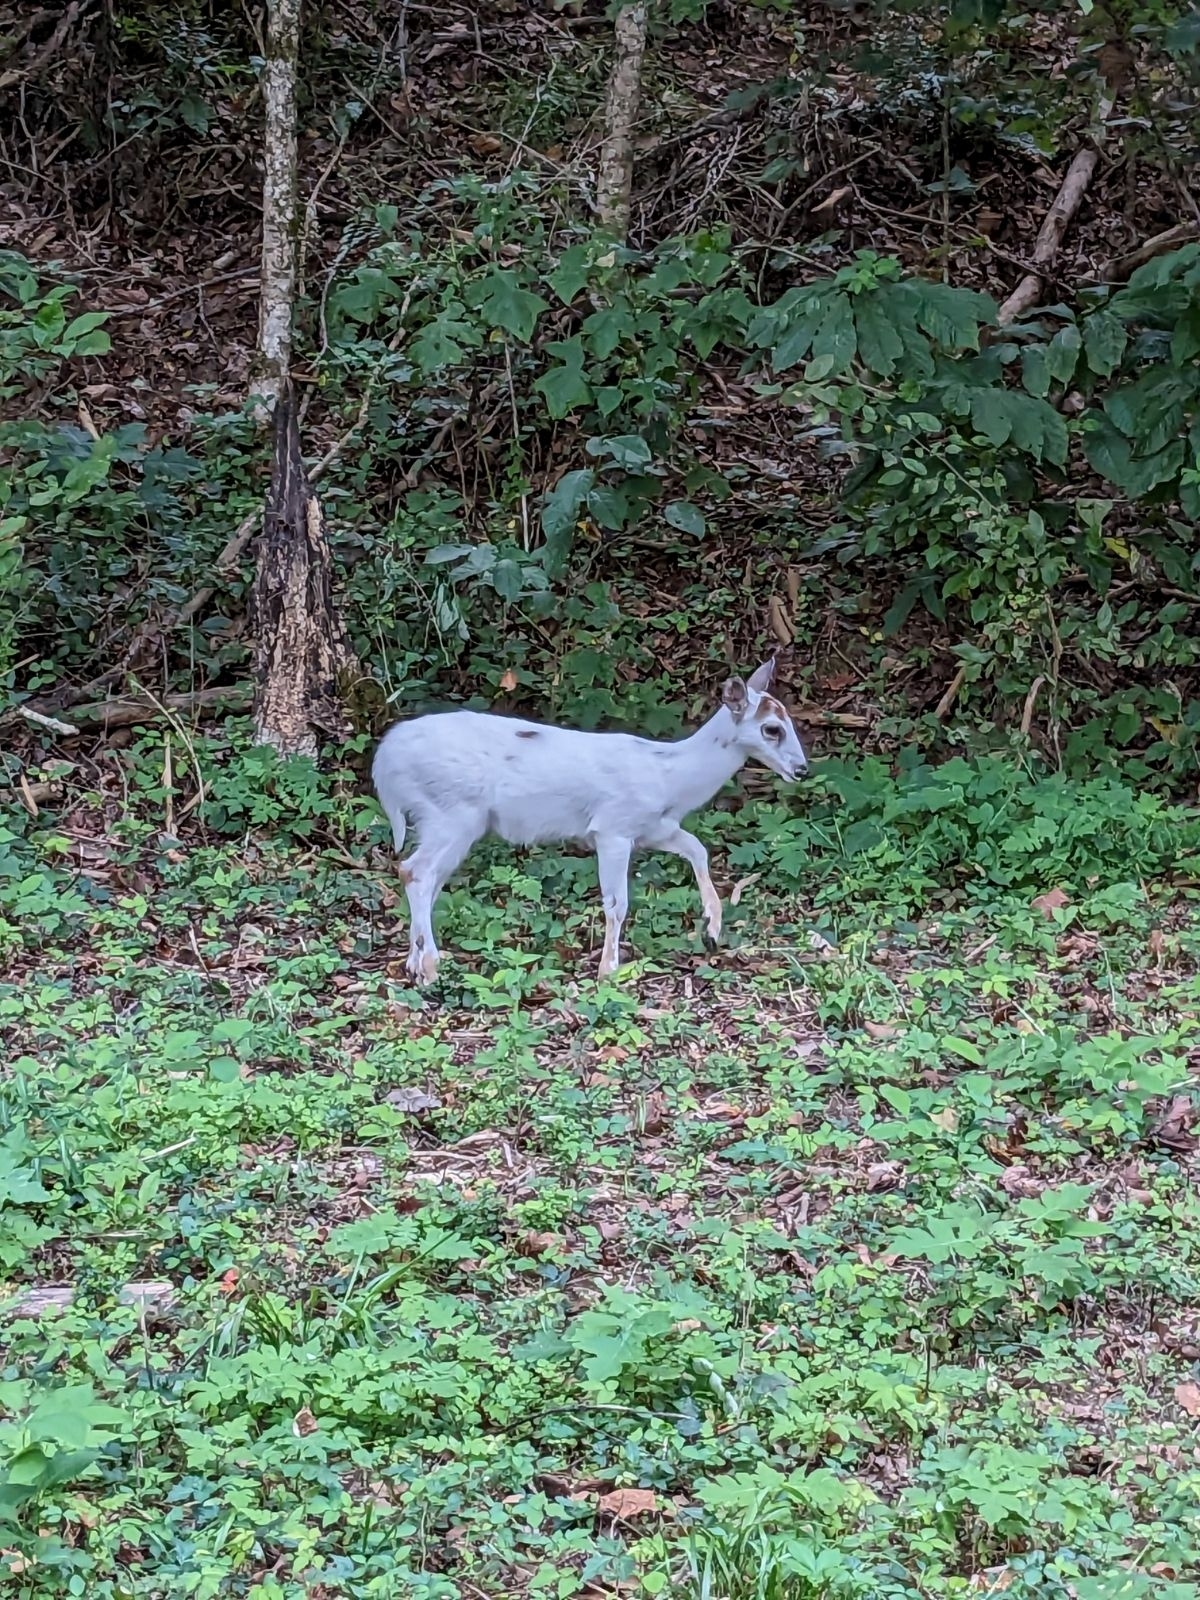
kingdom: Animalia
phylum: Chordata
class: Mammalia
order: Artiodactyla
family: Cervidae
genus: Odocoileus
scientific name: Odocoileus virginianus
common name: White-tailed deer
